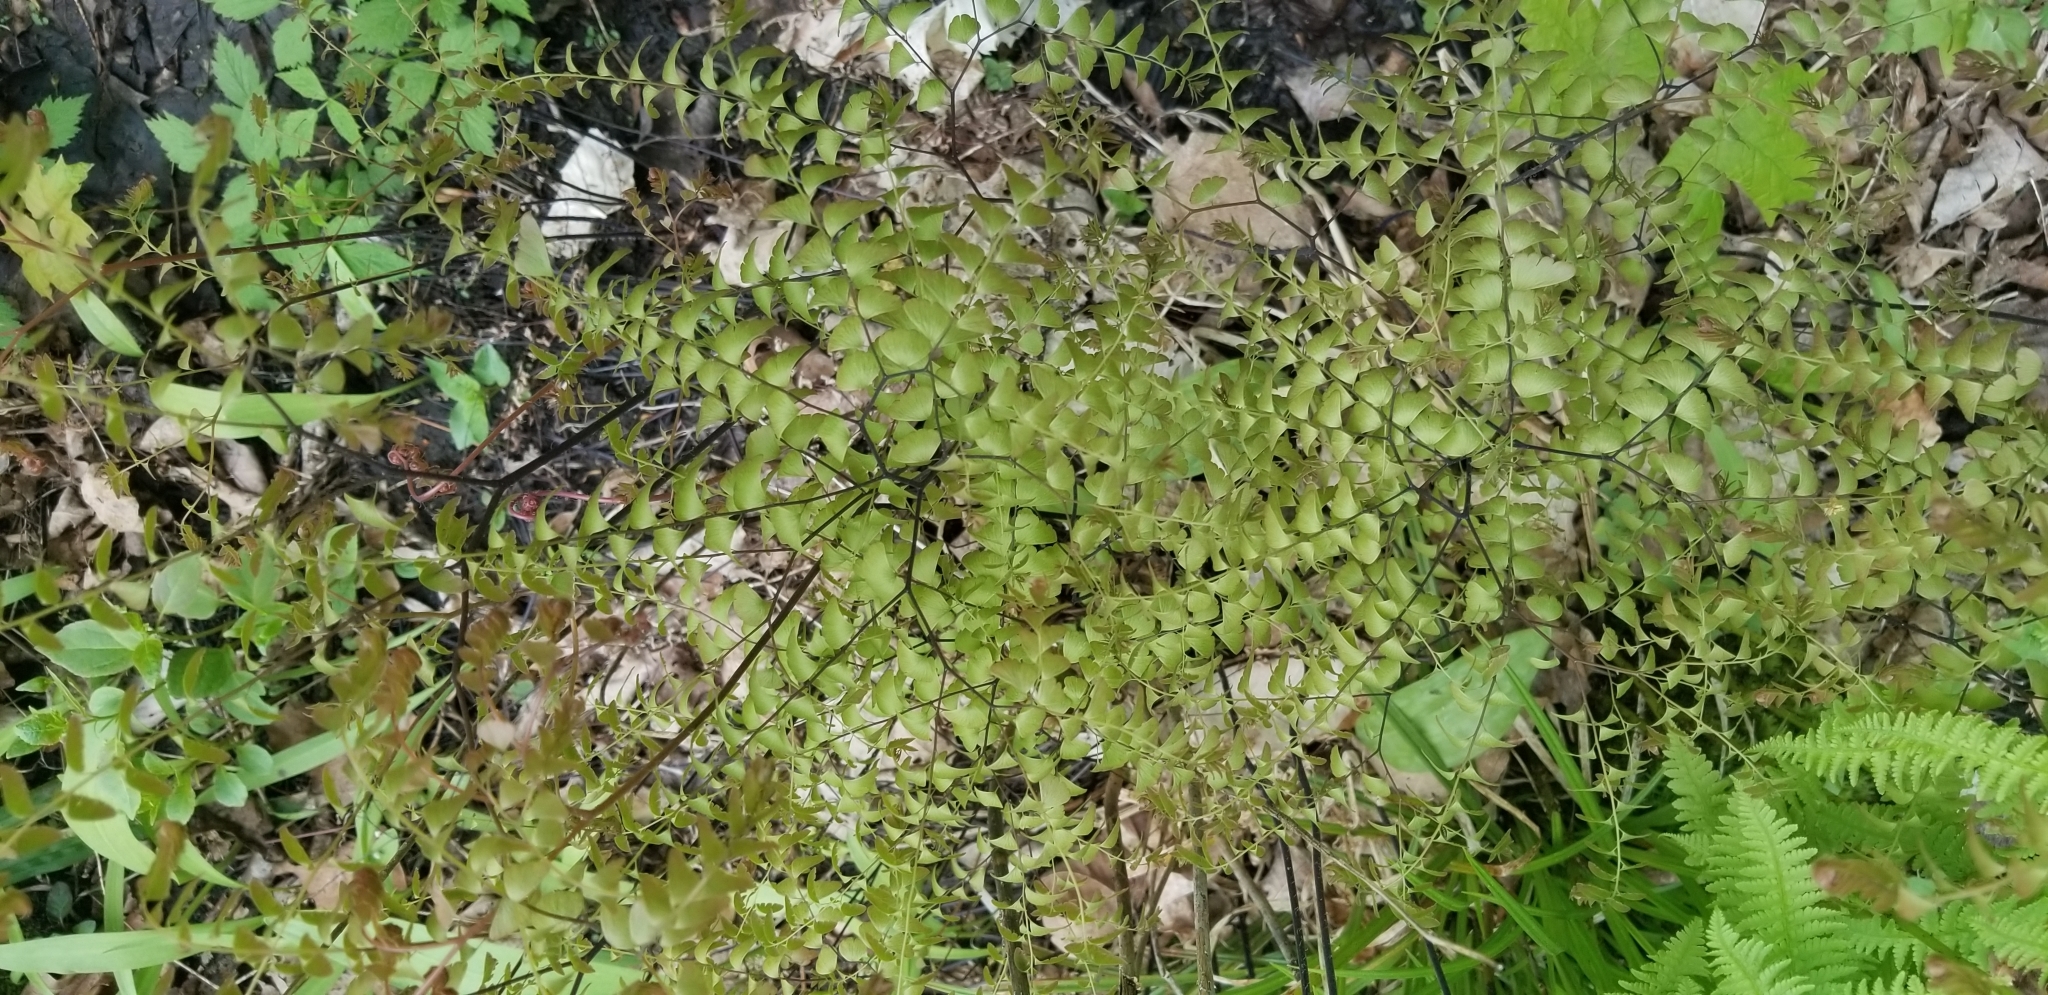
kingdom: Plantae
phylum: Tracheophyta
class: Polypodiopsida
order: Polypodiales
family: Pteridaceae
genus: Adiantum
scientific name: Adiantum pedatum
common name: Five-finger fern
